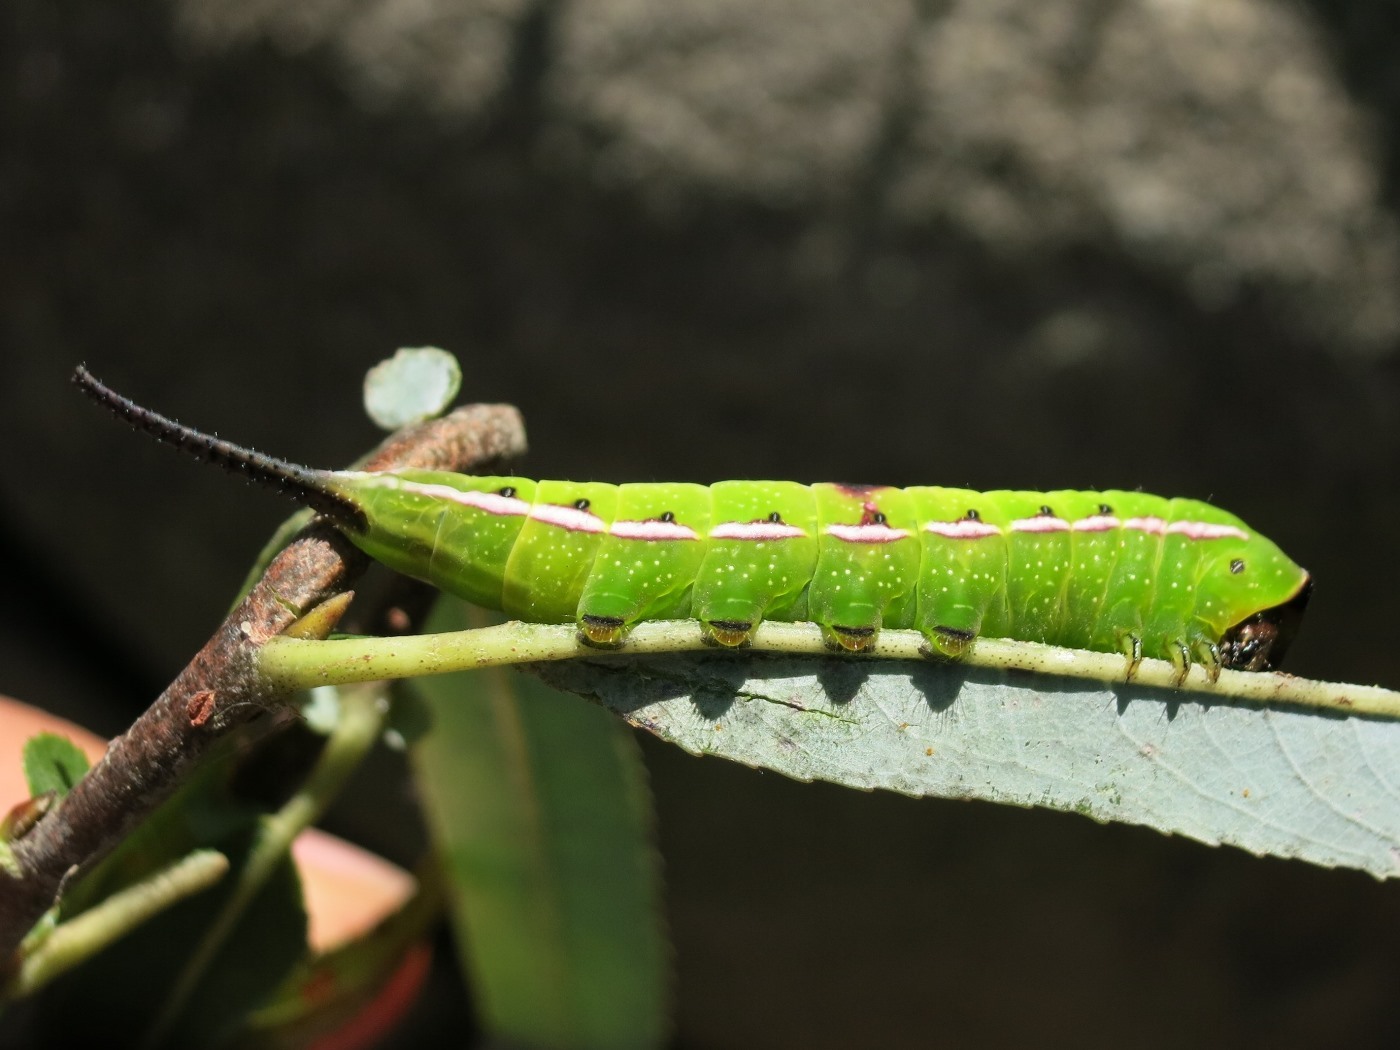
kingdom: Animalia
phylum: Arthropoda
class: Insecta
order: Lepidoptera
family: Notodontidae
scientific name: Notodontidae
